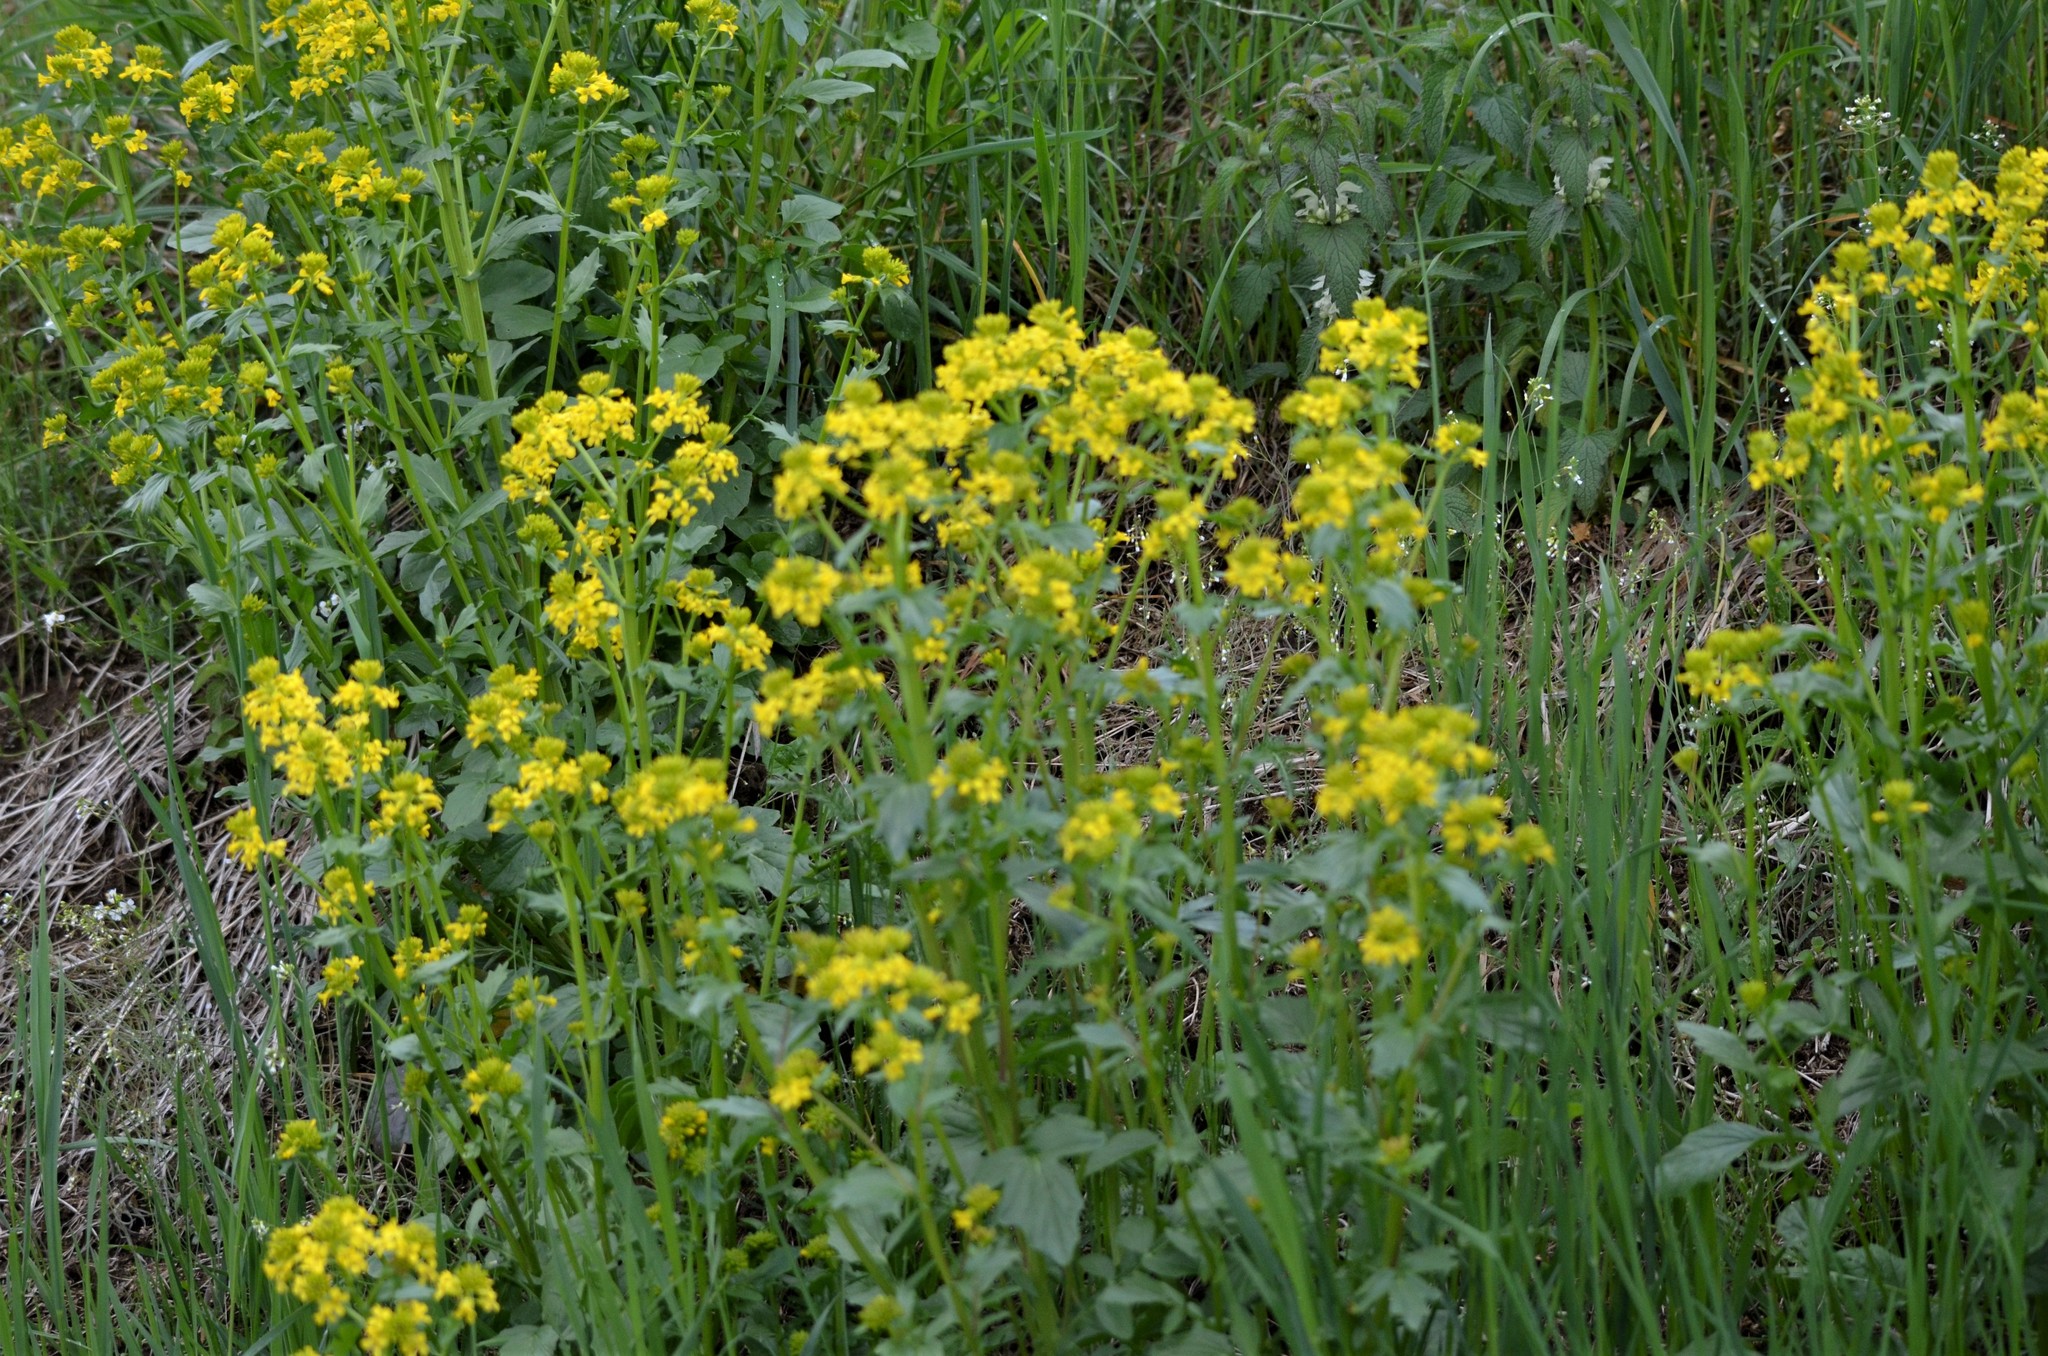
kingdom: Plantae
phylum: Tracheophyta
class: Magnoliopsida
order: Brassicales
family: Brassicaceae
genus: Barbarea
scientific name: Barbarea vulgaris
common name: Cressy-greens
